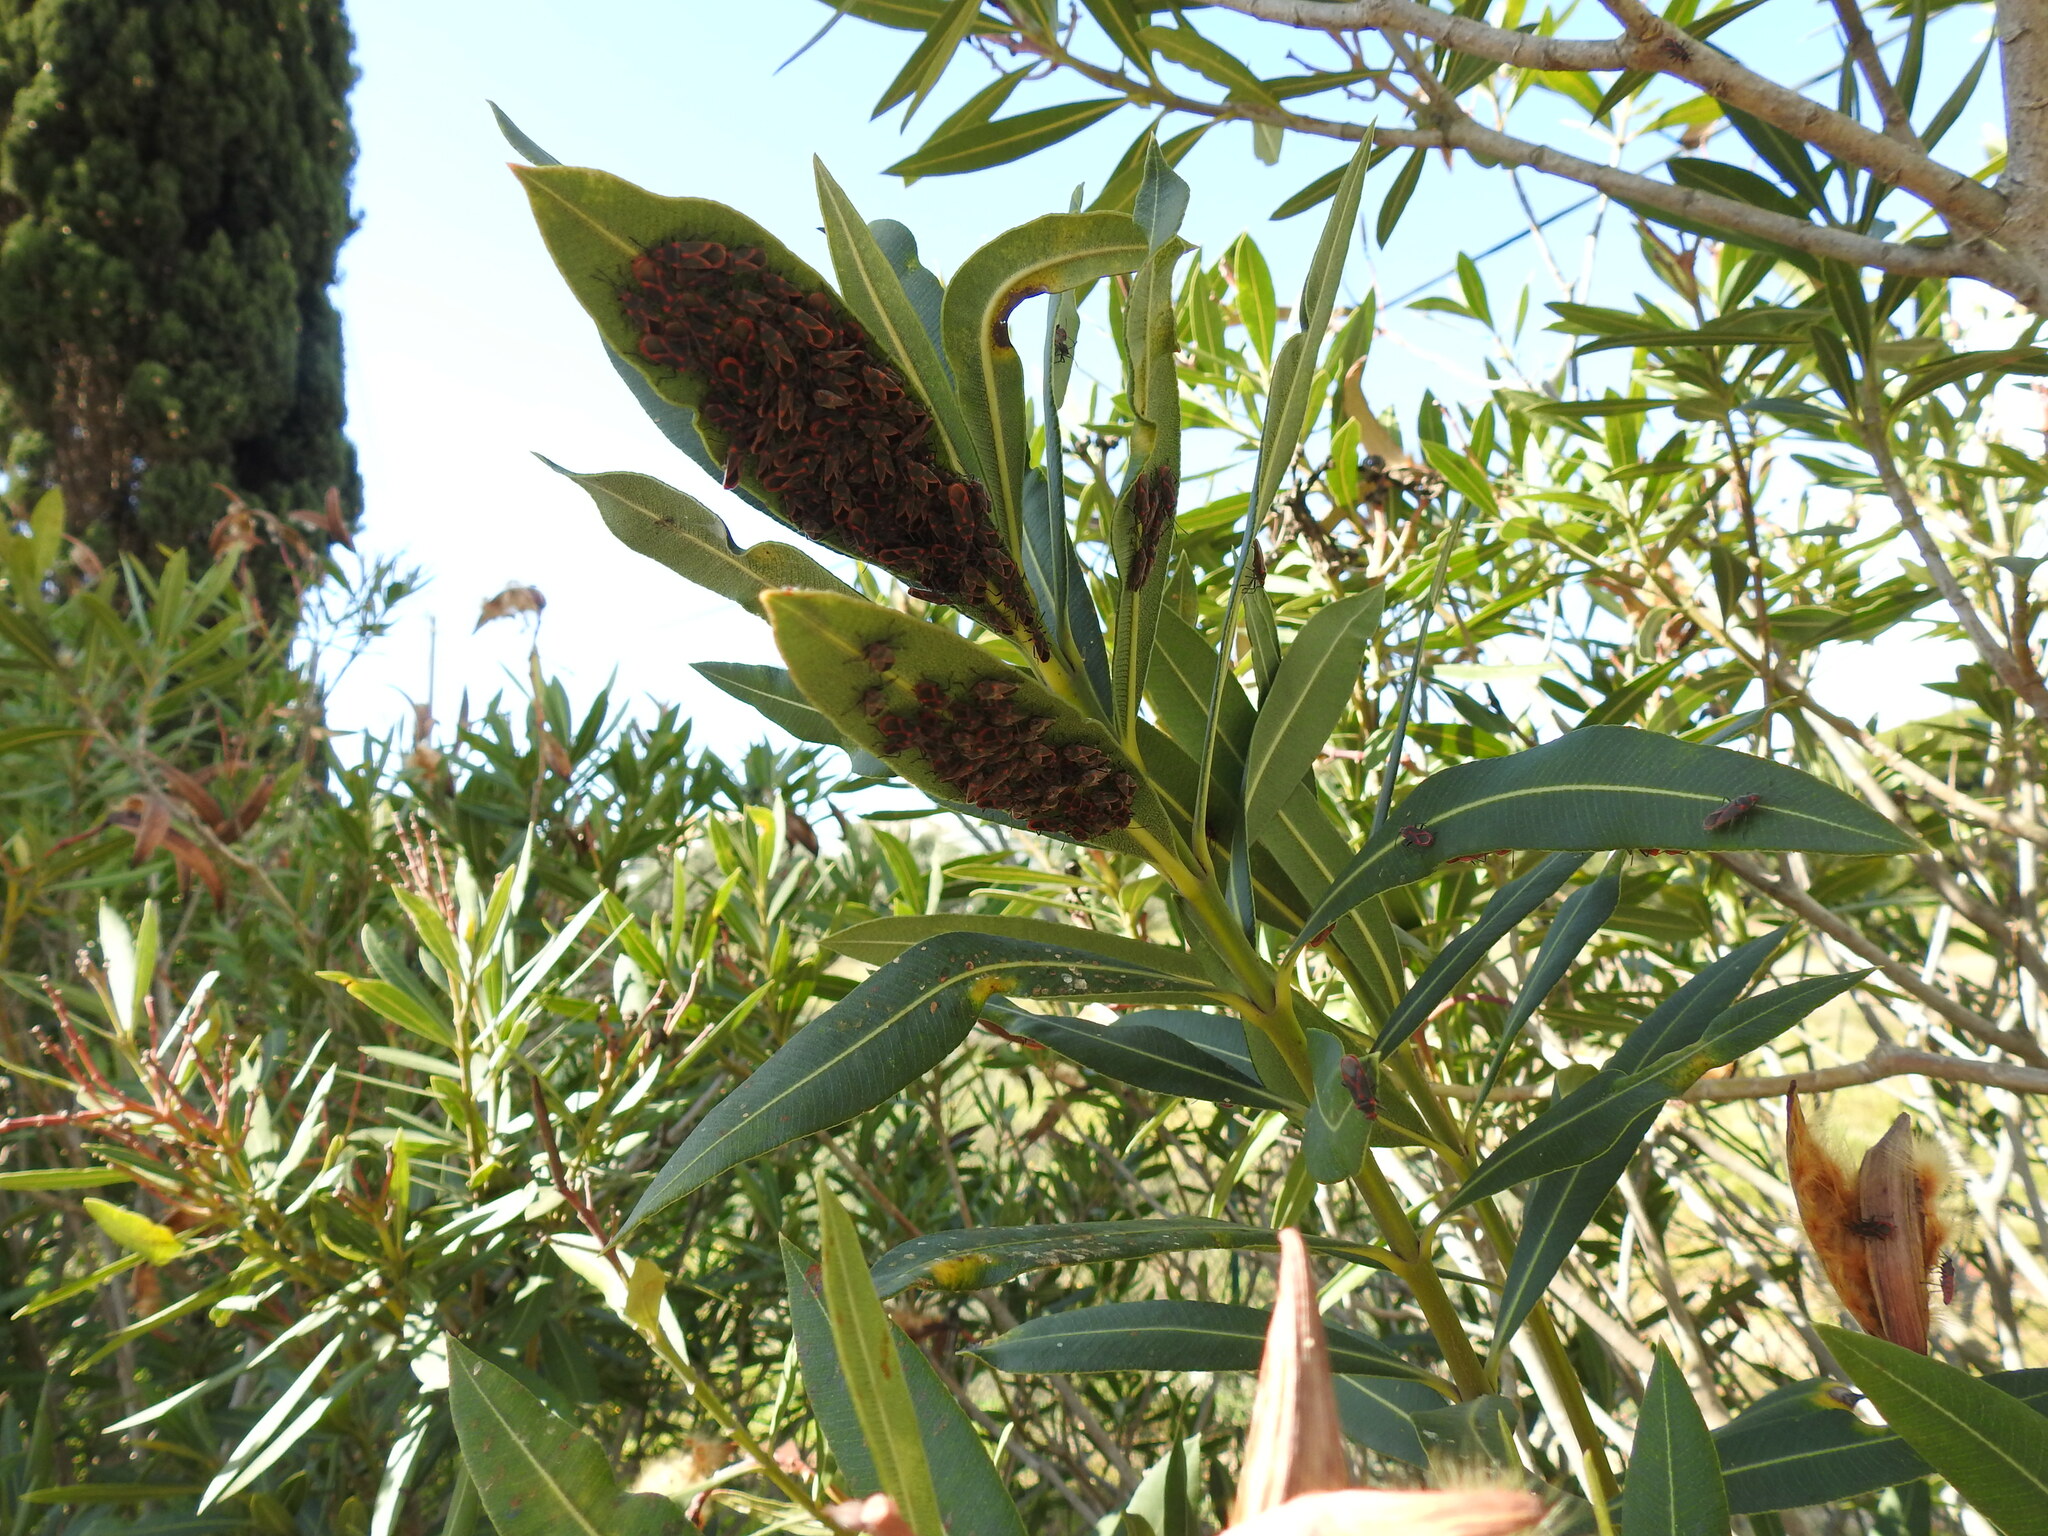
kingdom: Animalia
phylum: Arthropoda
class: Insecta
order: Hemiptera
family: Lygaeidae
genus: Caenocoris
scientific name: Caenocoris nerii
